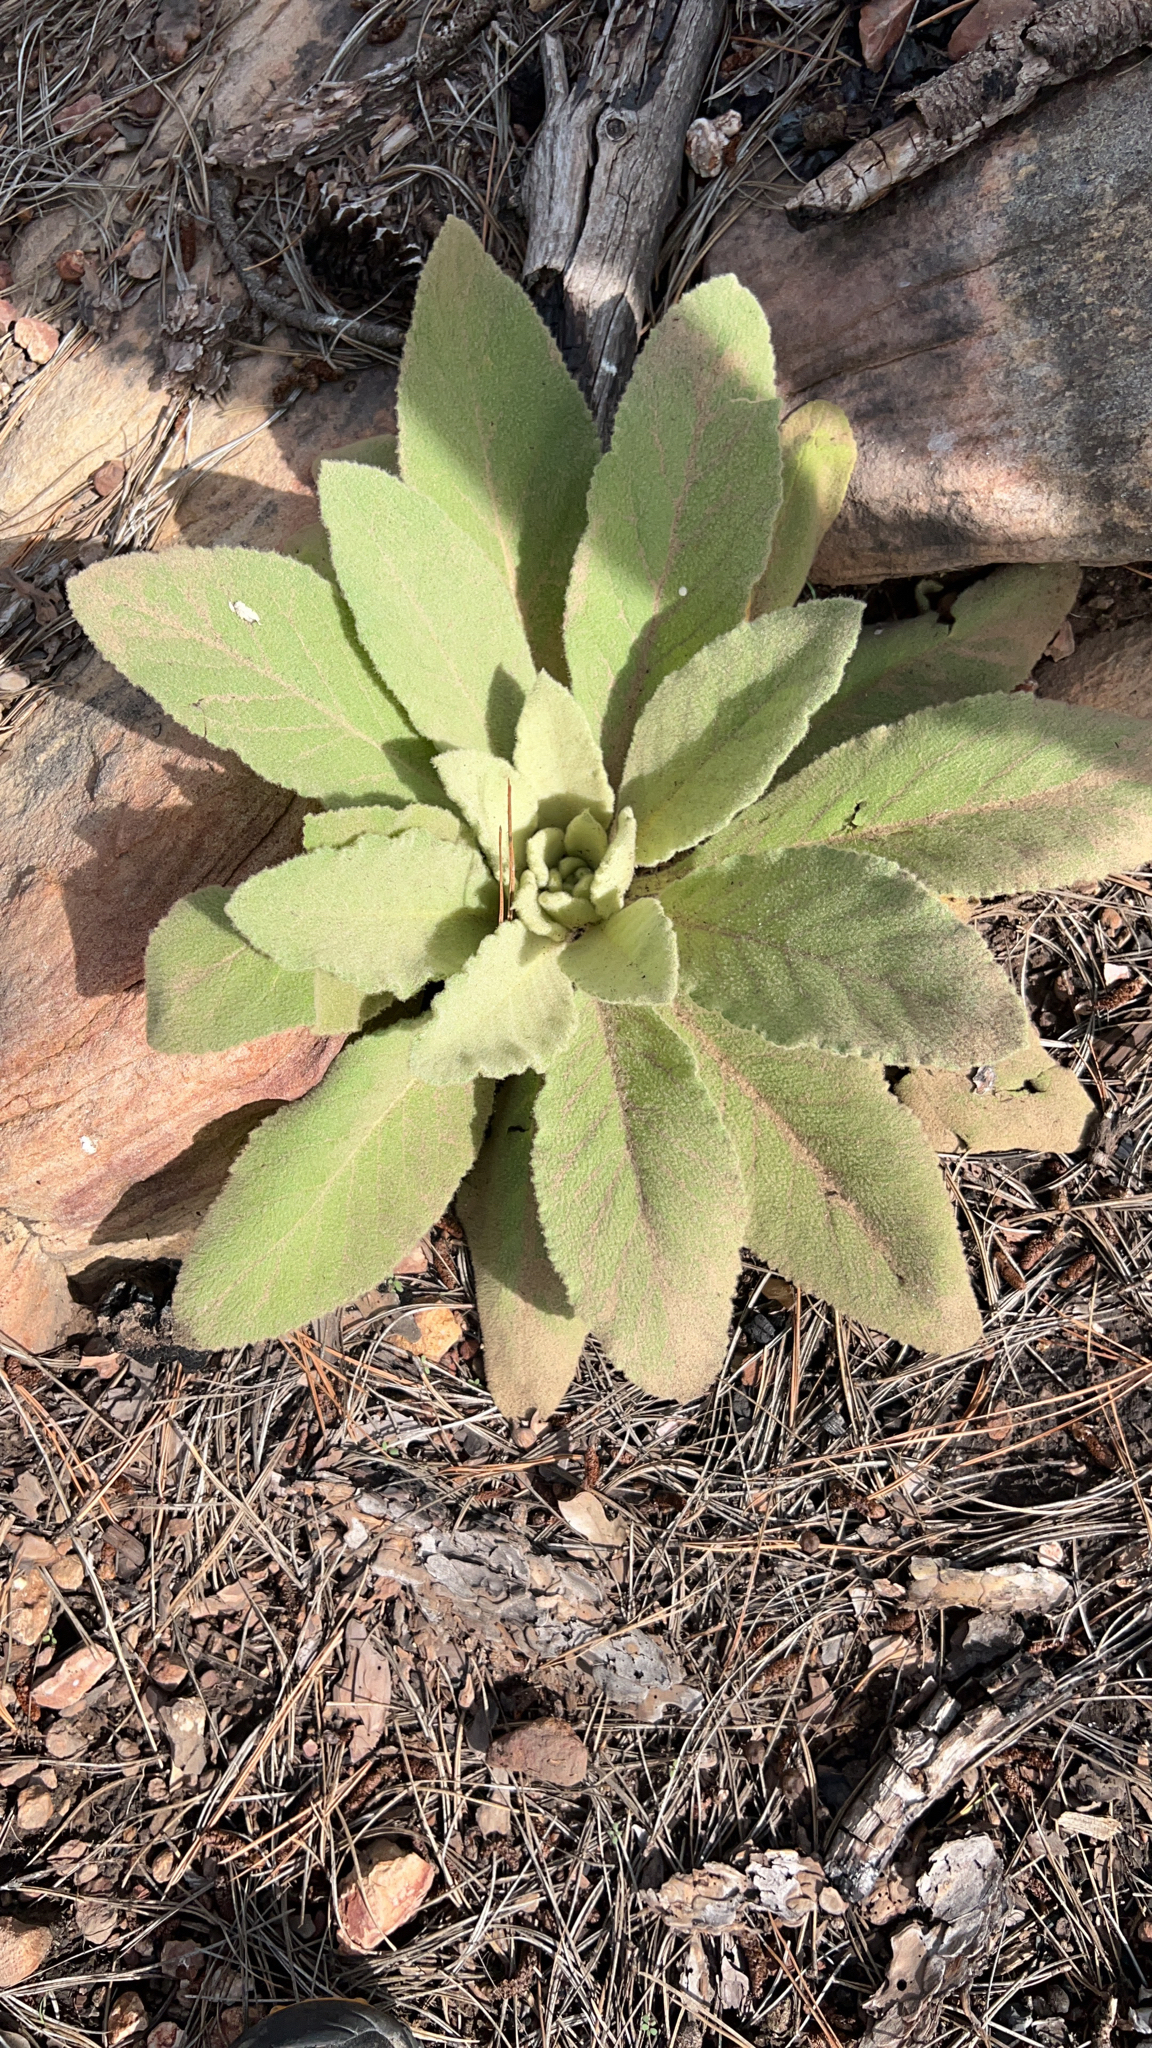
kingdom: Plantae
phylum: Tracheophyta
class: Magnoliopsida
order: Lamiales
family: Scrophulariaceae
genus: Verbascum
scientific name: Verbascum thapsus
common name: Common mullein
